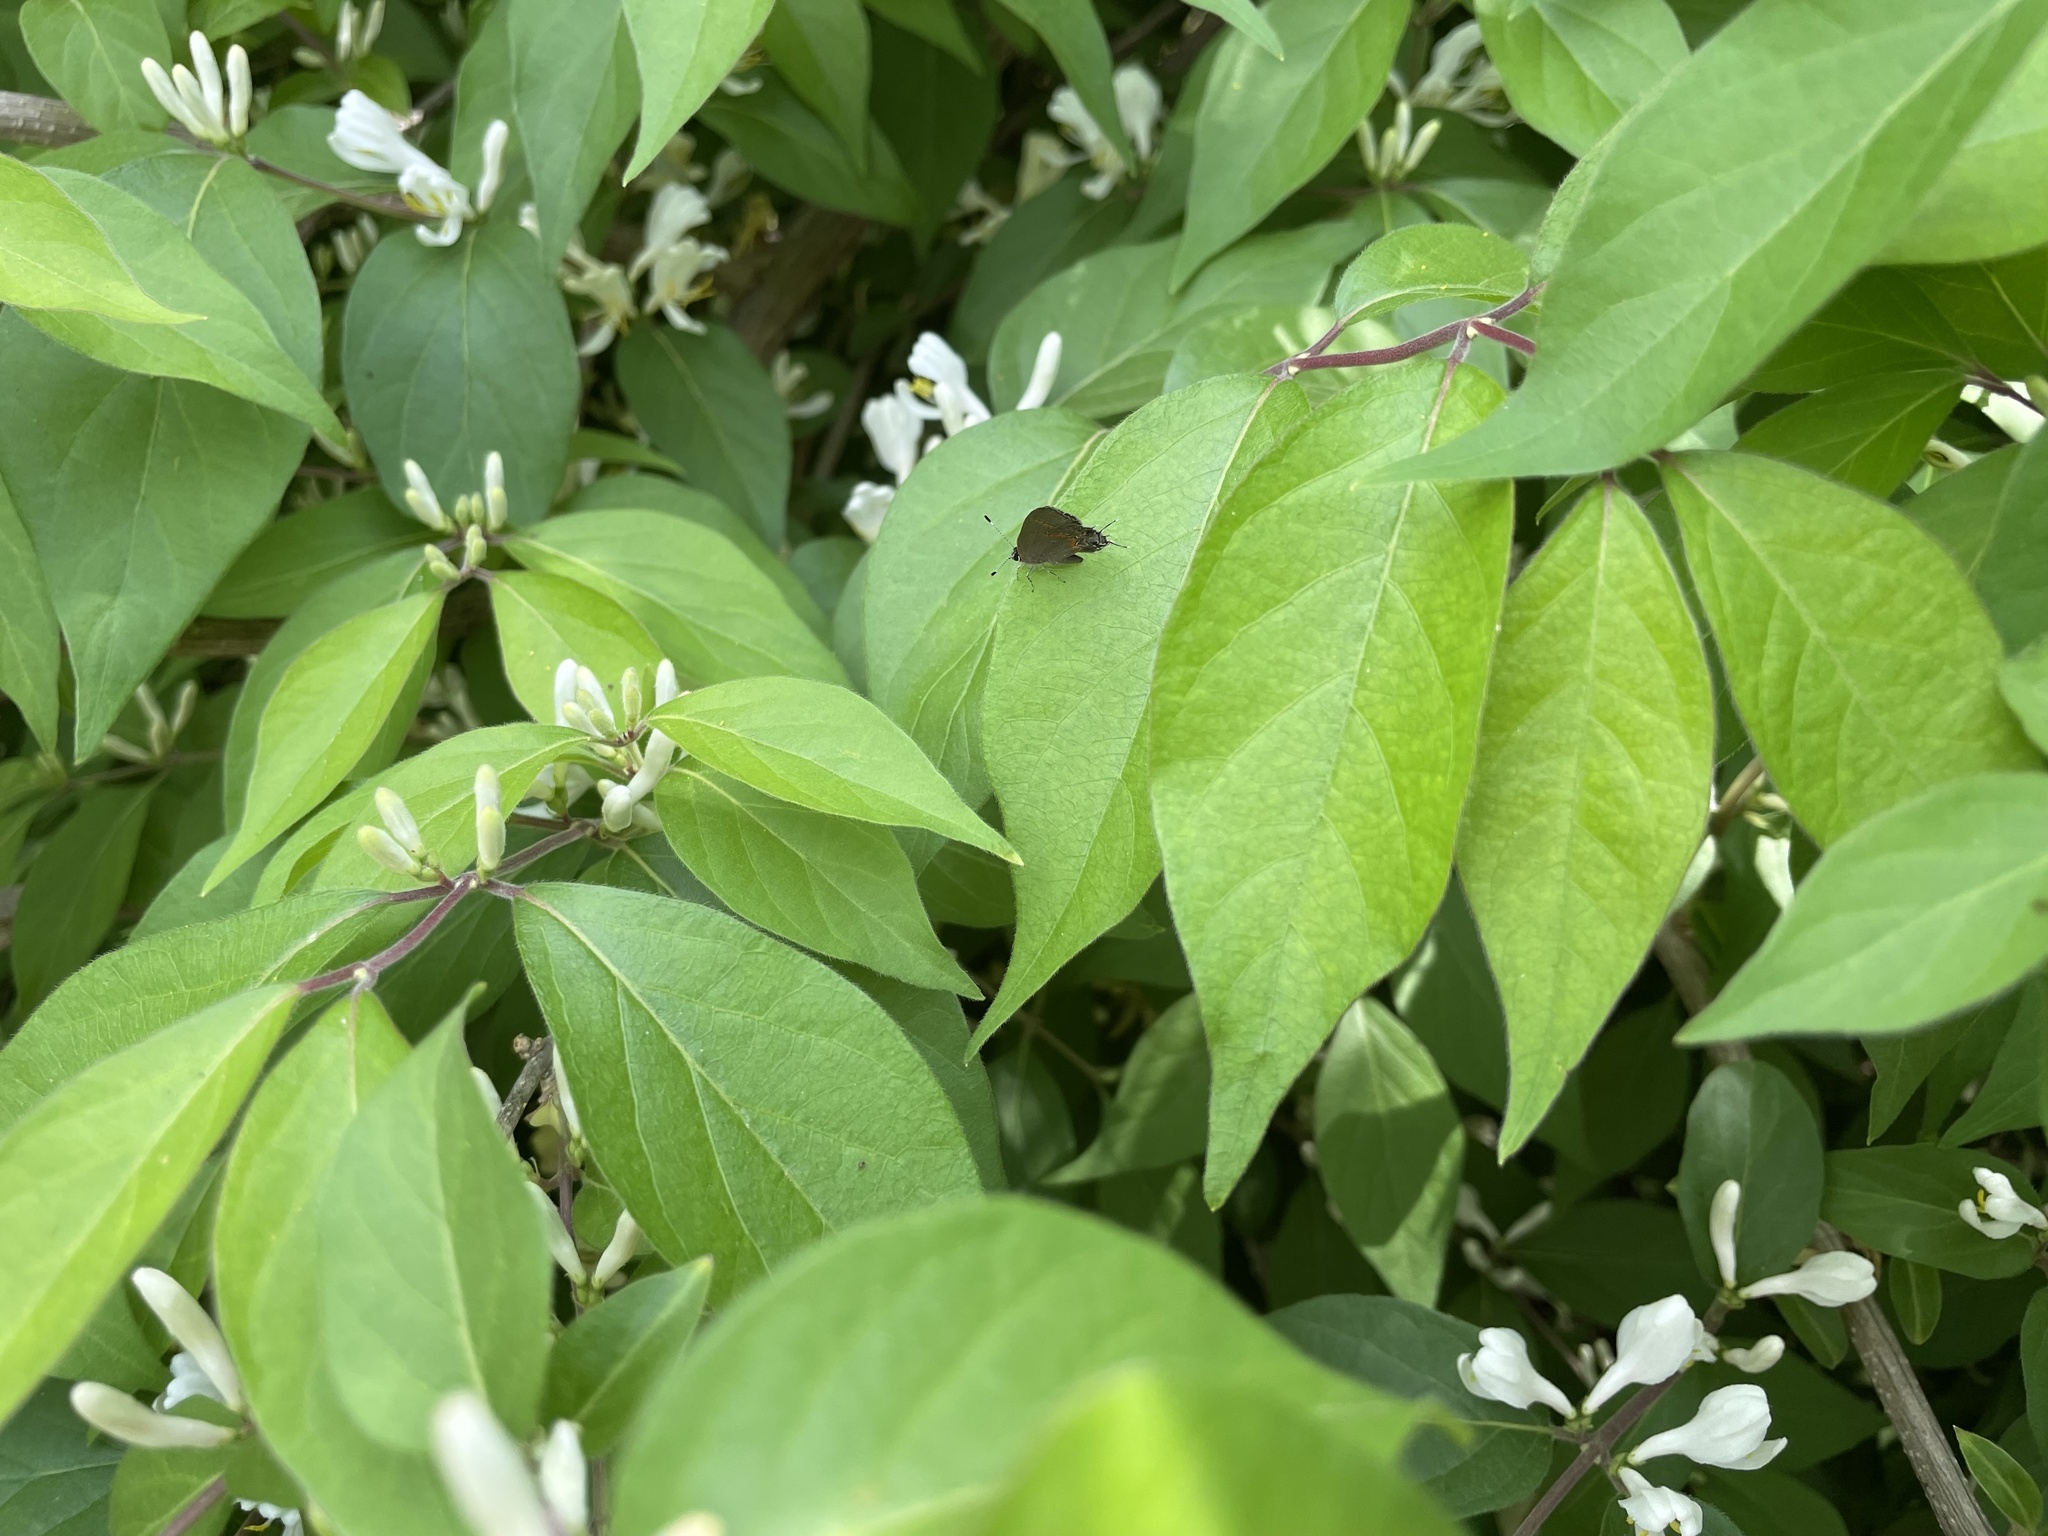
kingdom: Animalia
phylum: Arthropoda
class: Insecta
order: Lepidoptera
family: Lycaenidae
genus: Calycopis
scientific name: Calycopis cecrops
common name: Red-banded hairstreak
